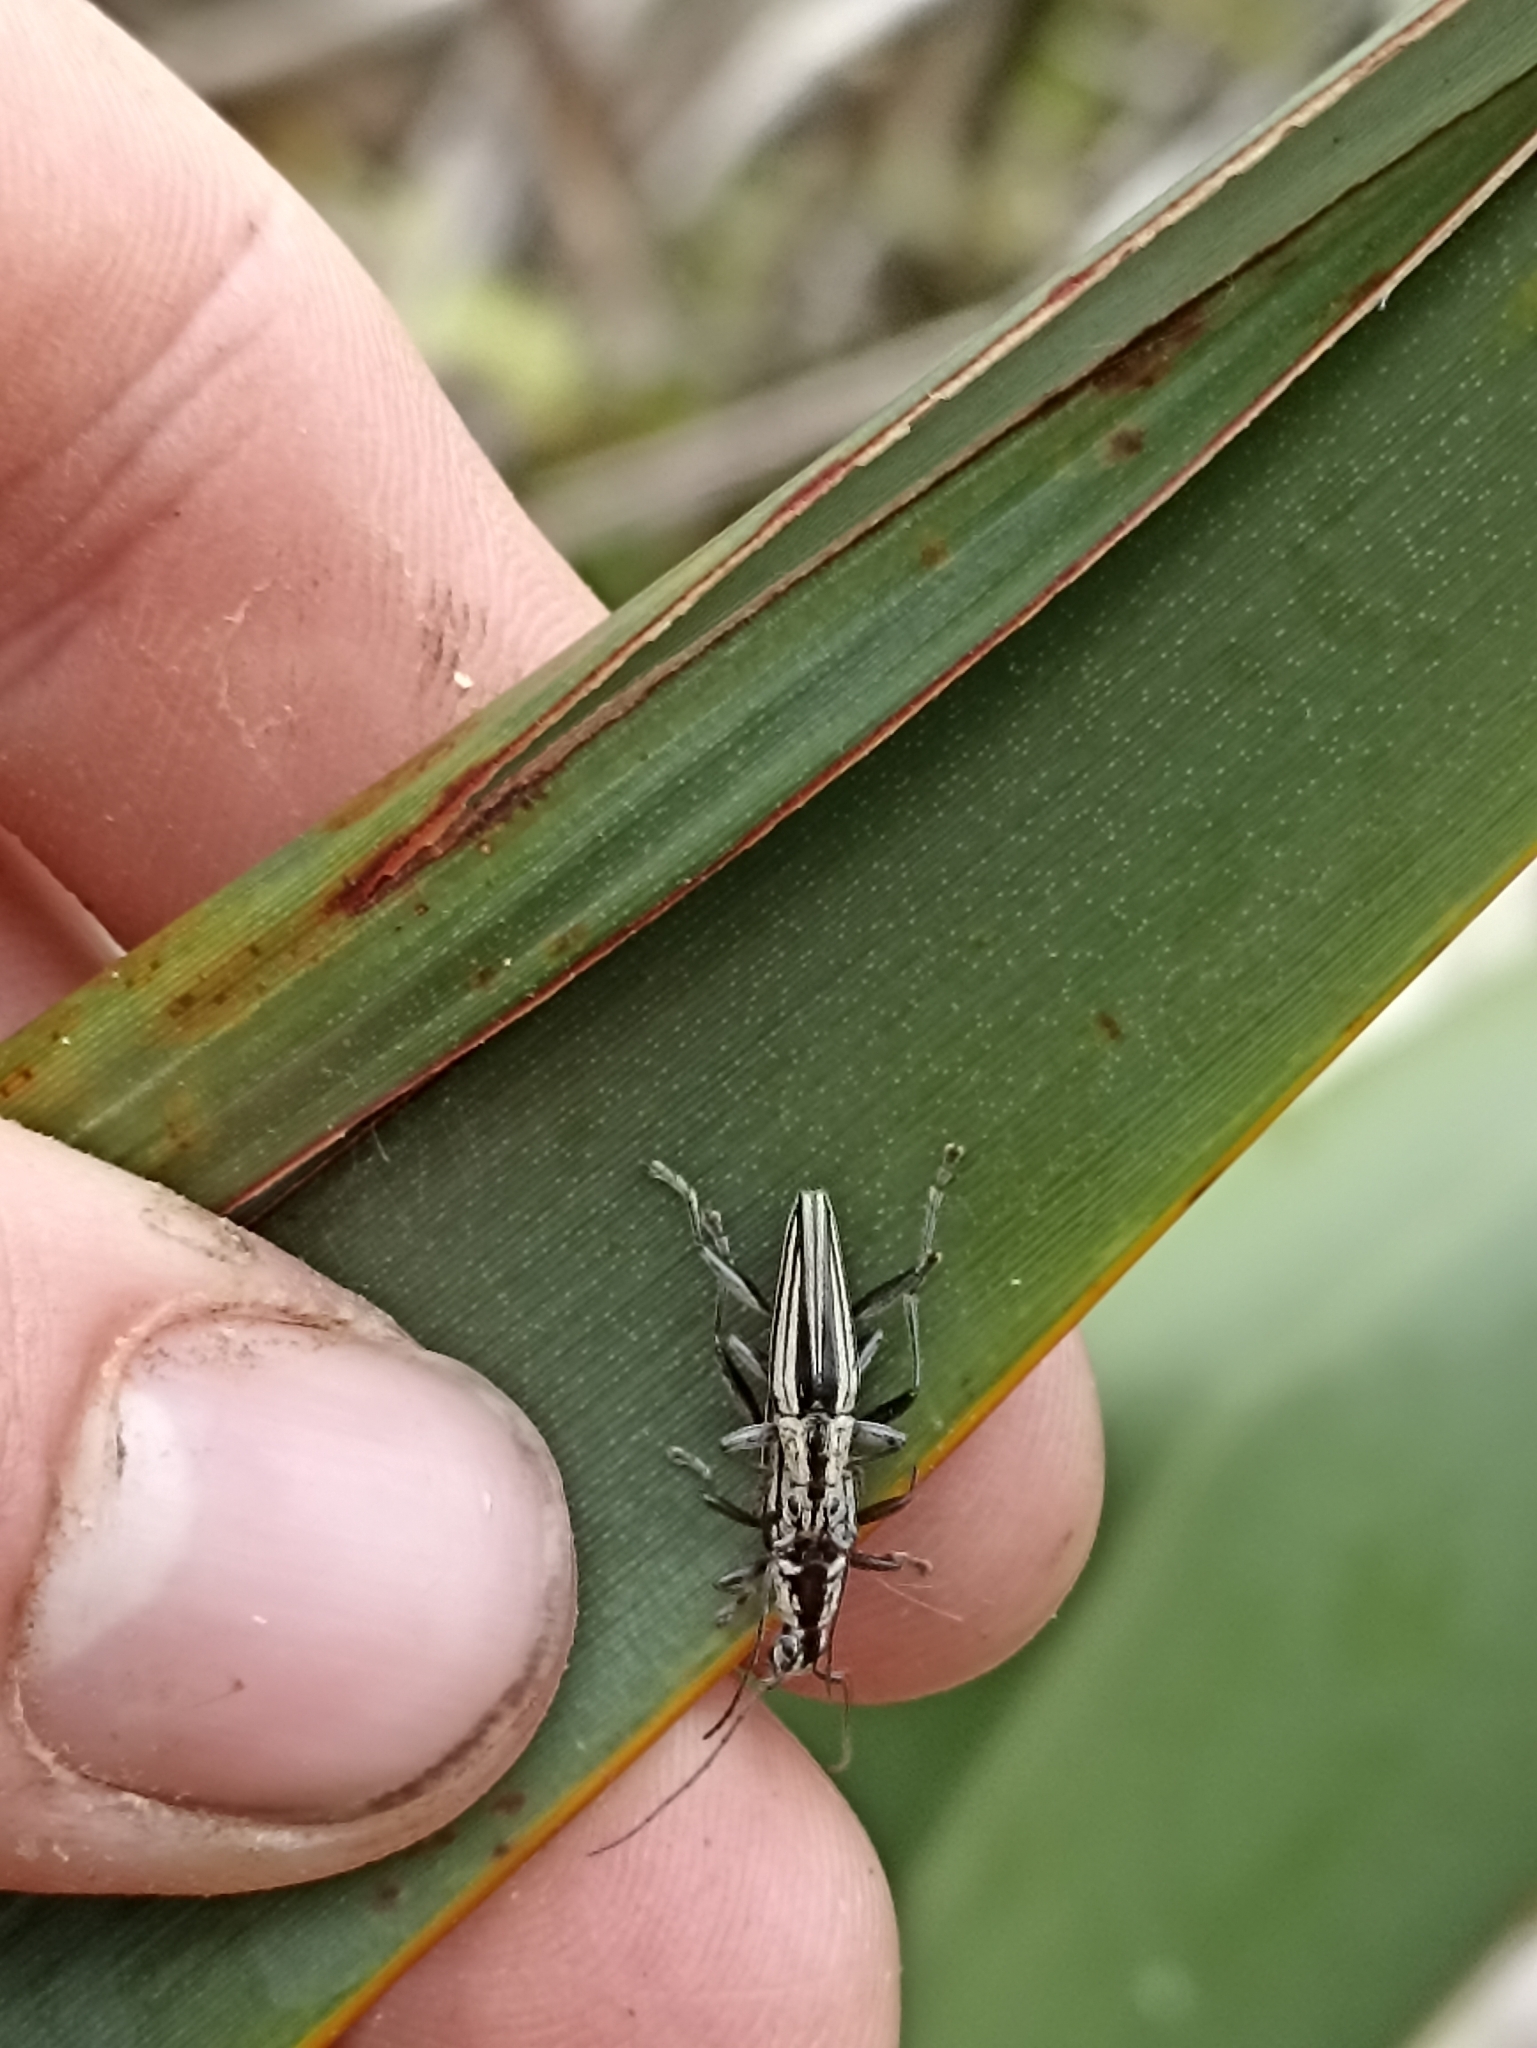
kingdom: Animalia
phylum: Arthropoda
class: Insecta
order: Coleoptera
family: Cerambycidae
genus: Coptomma
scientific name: Coptomma sulcatum
